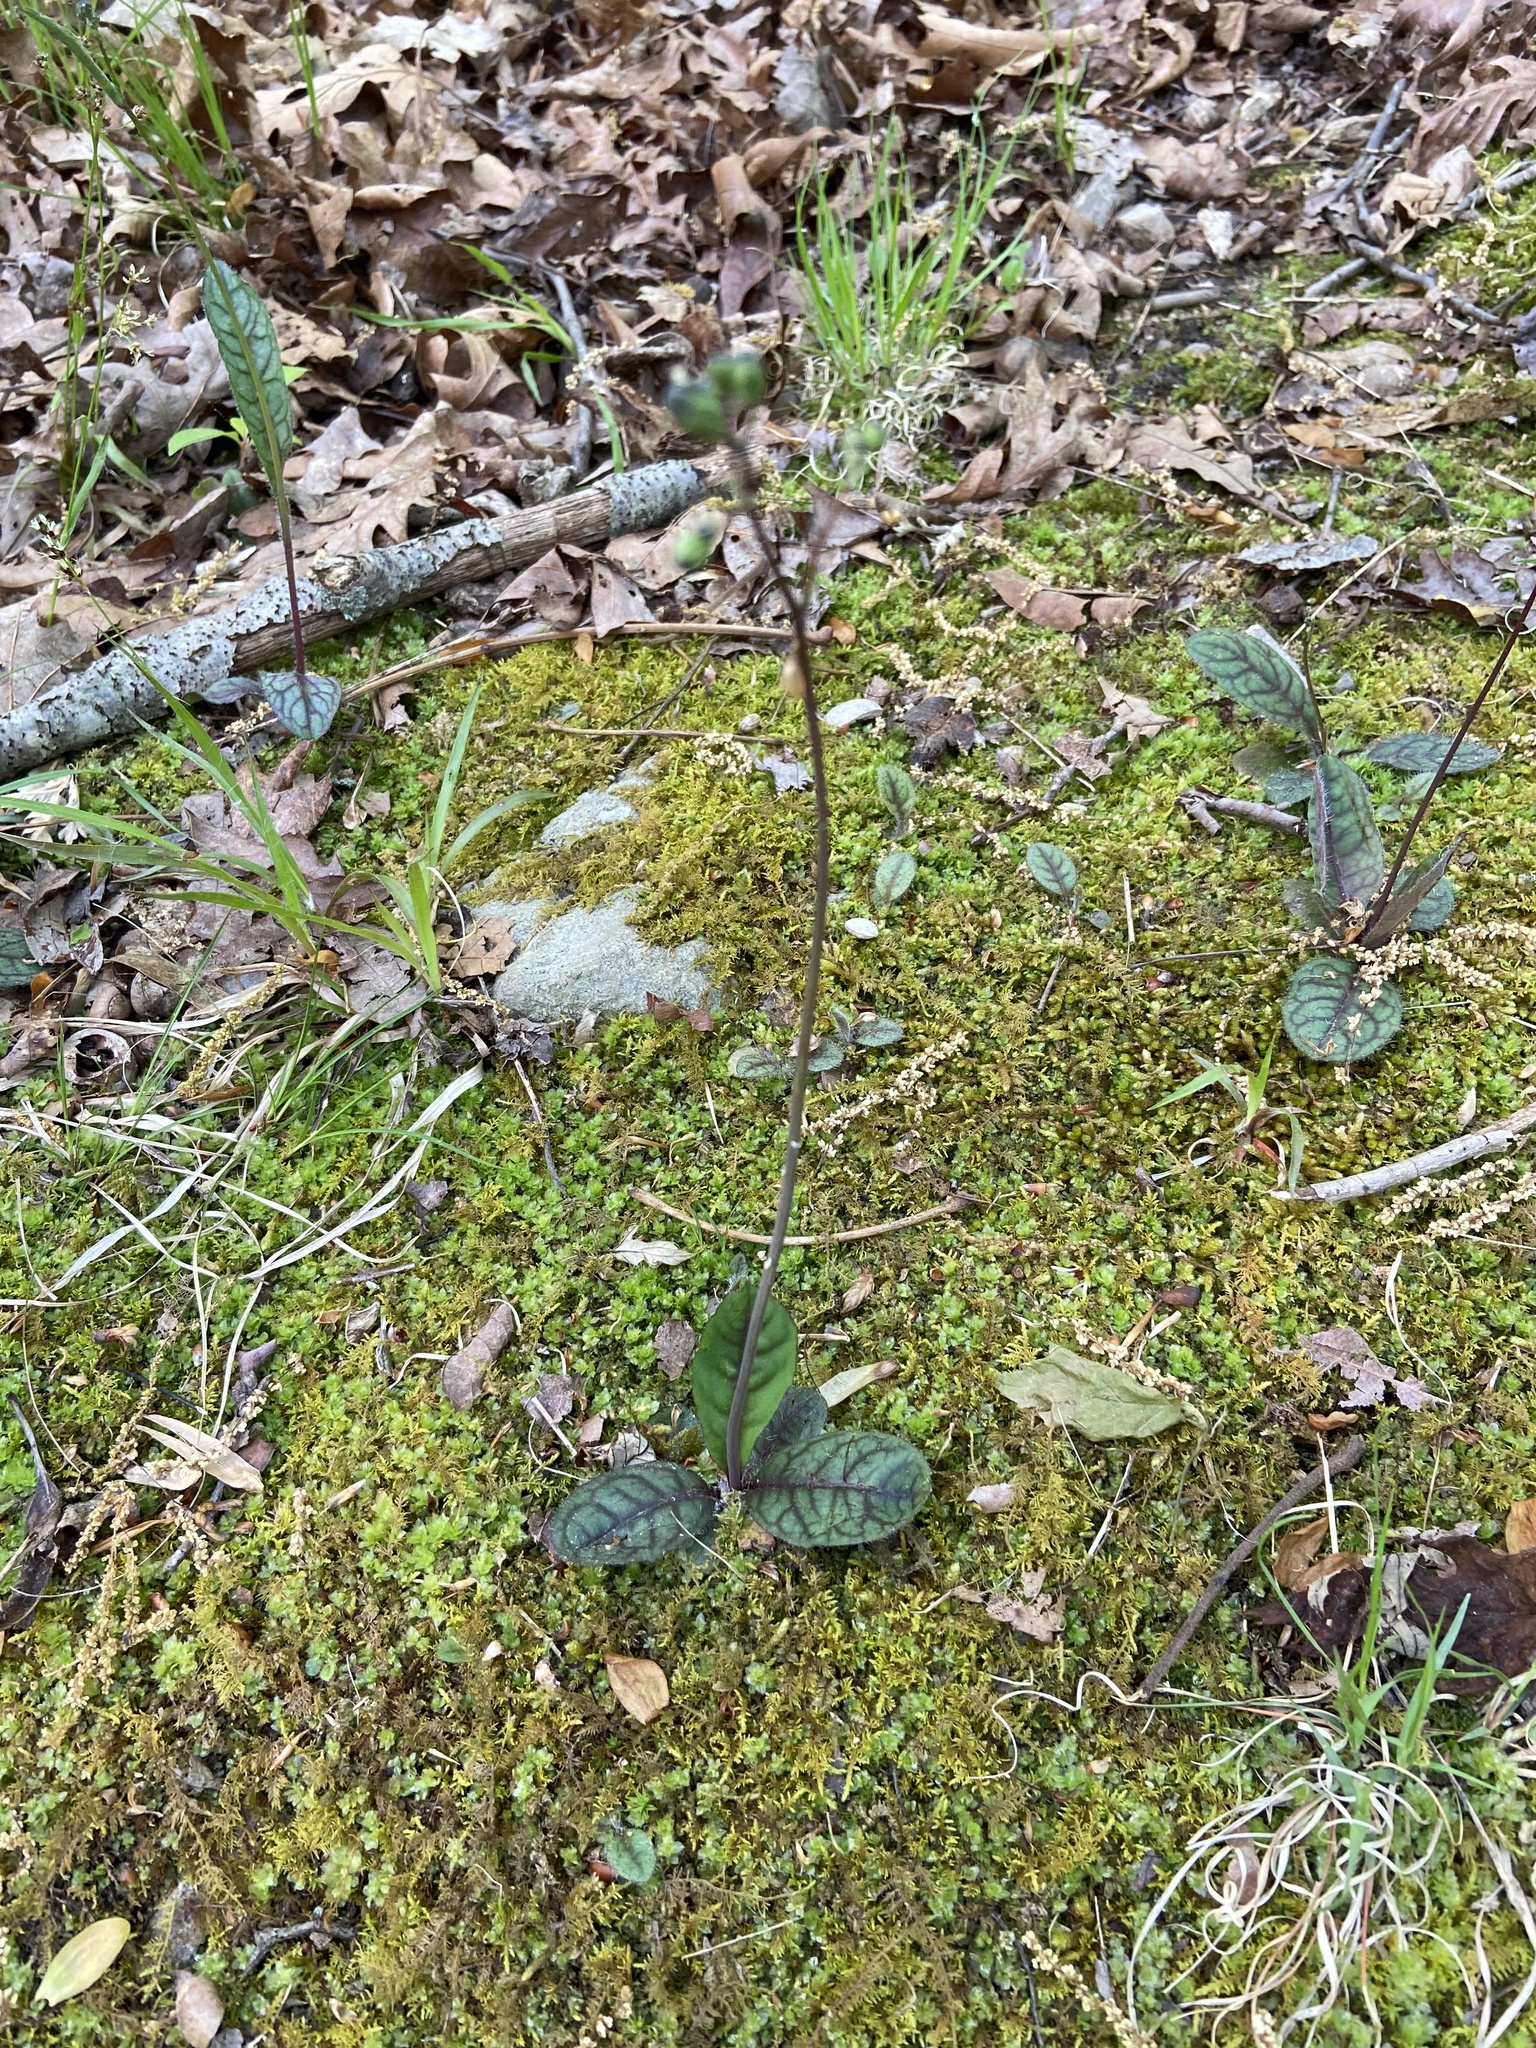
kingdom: Plantae
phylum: Tracheophyta
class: Magnoliopsida
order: Asterales
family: Asteraceae
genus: Hieracium
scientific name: Hieracium venosum
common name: Rattlesnake hawkweed
